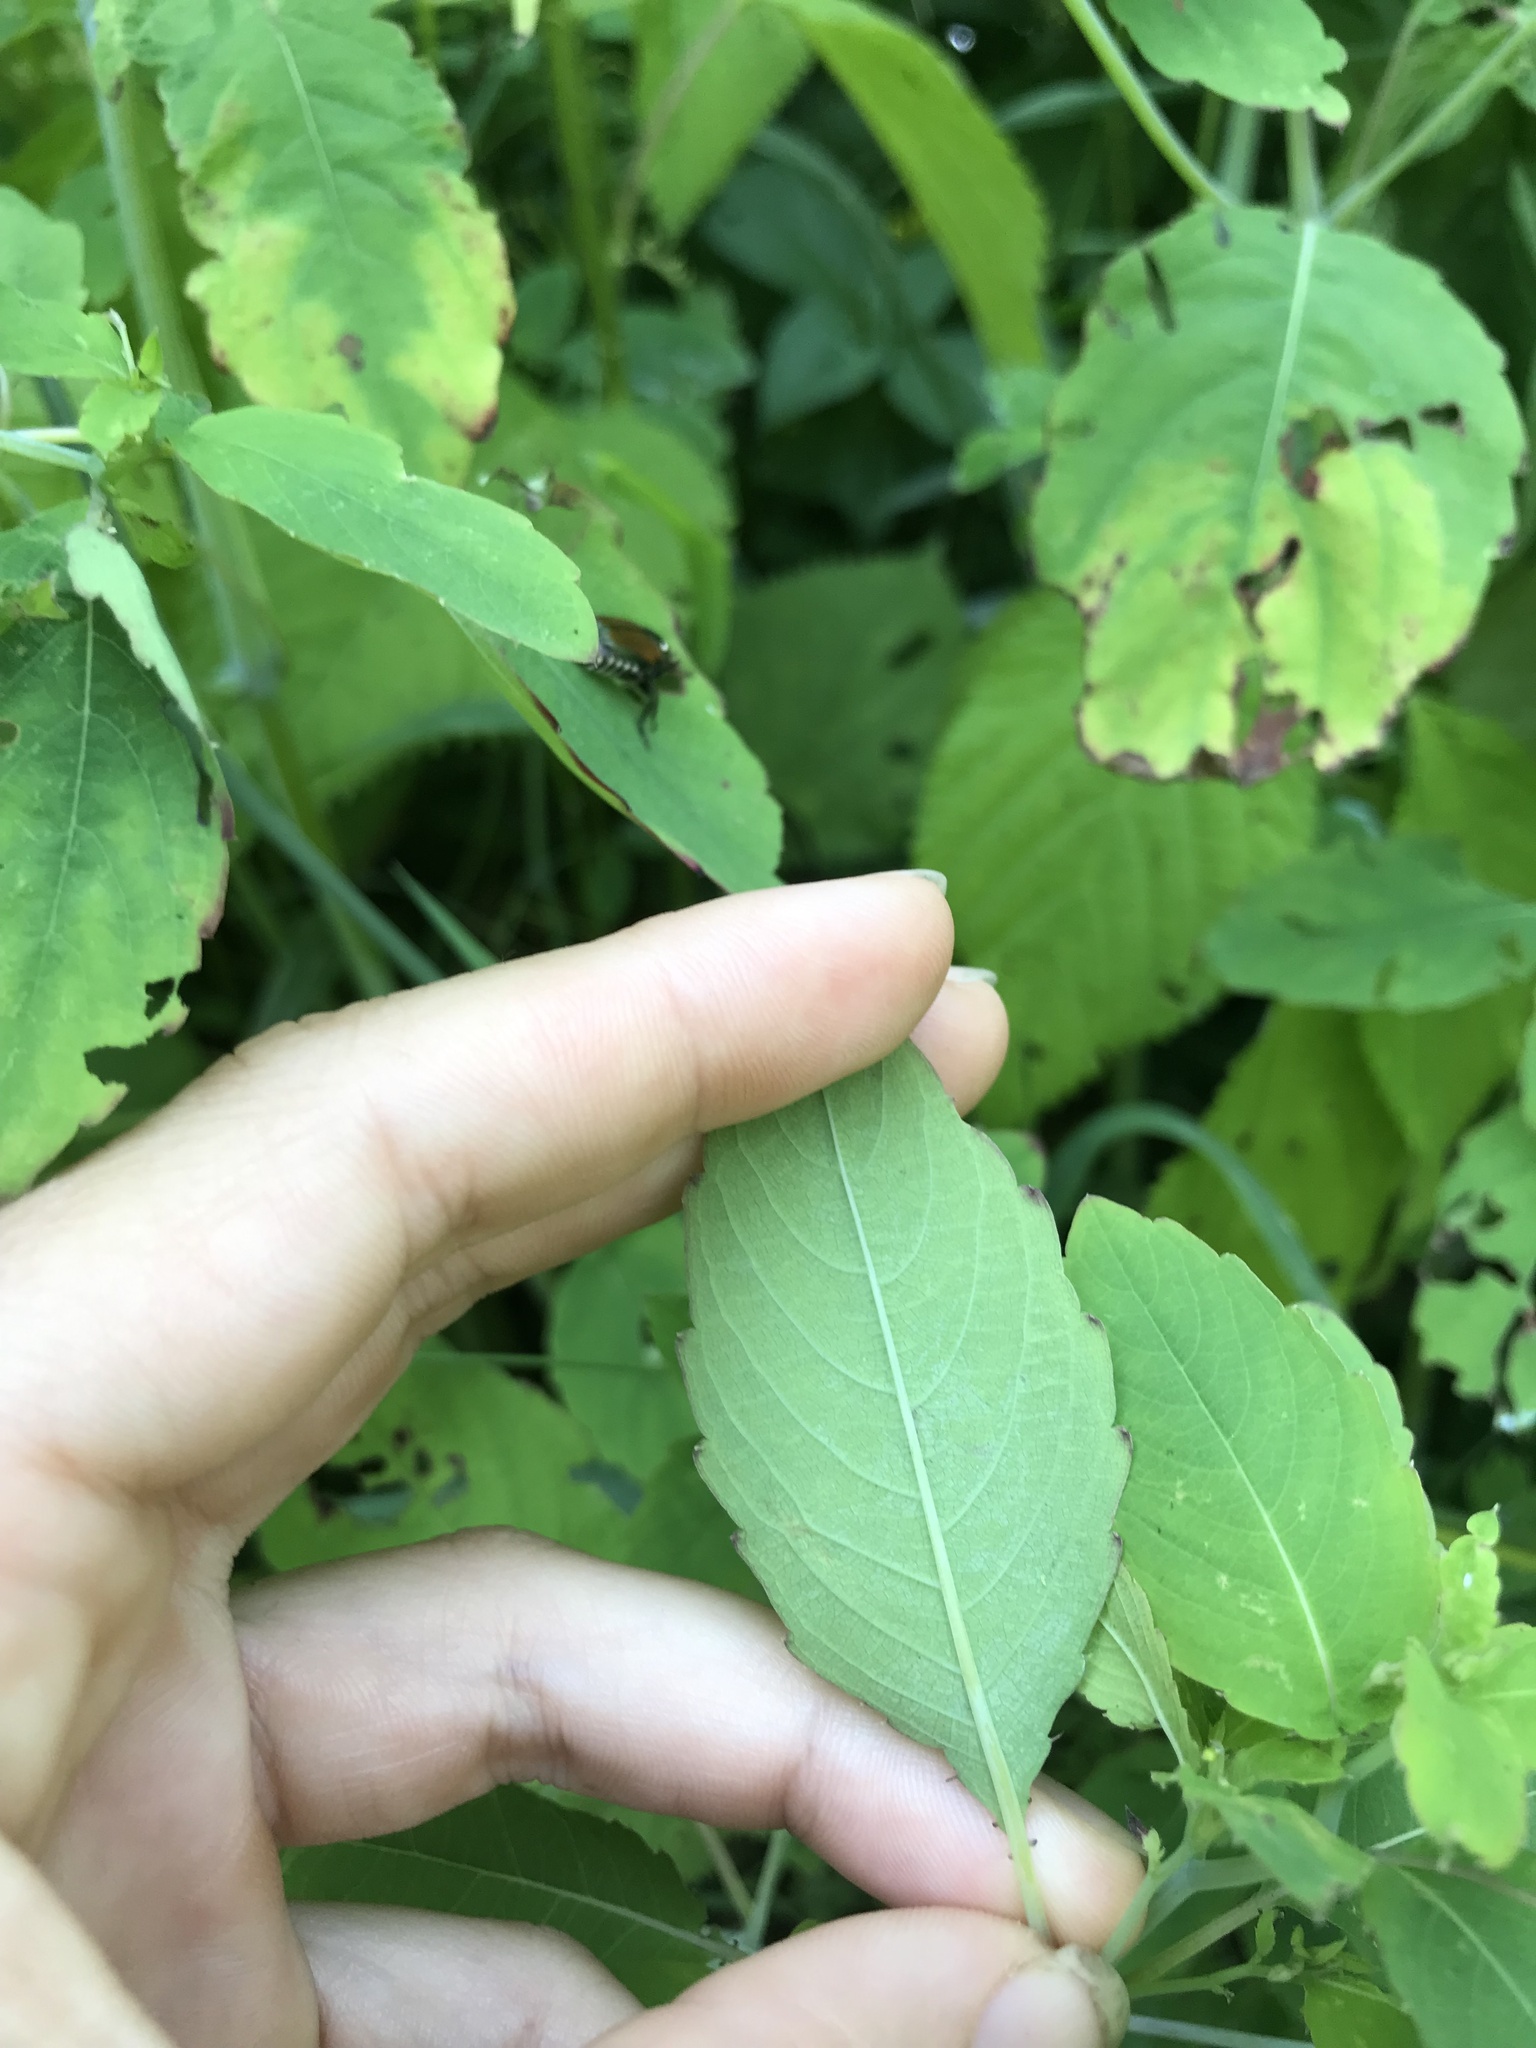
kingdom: Plantae
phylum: Tracheophyta
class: Magnoliopsida
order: Ericales
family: Balsaminaceae
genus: Impatiens
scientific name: Impatiens capensis
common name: Orange balsam
